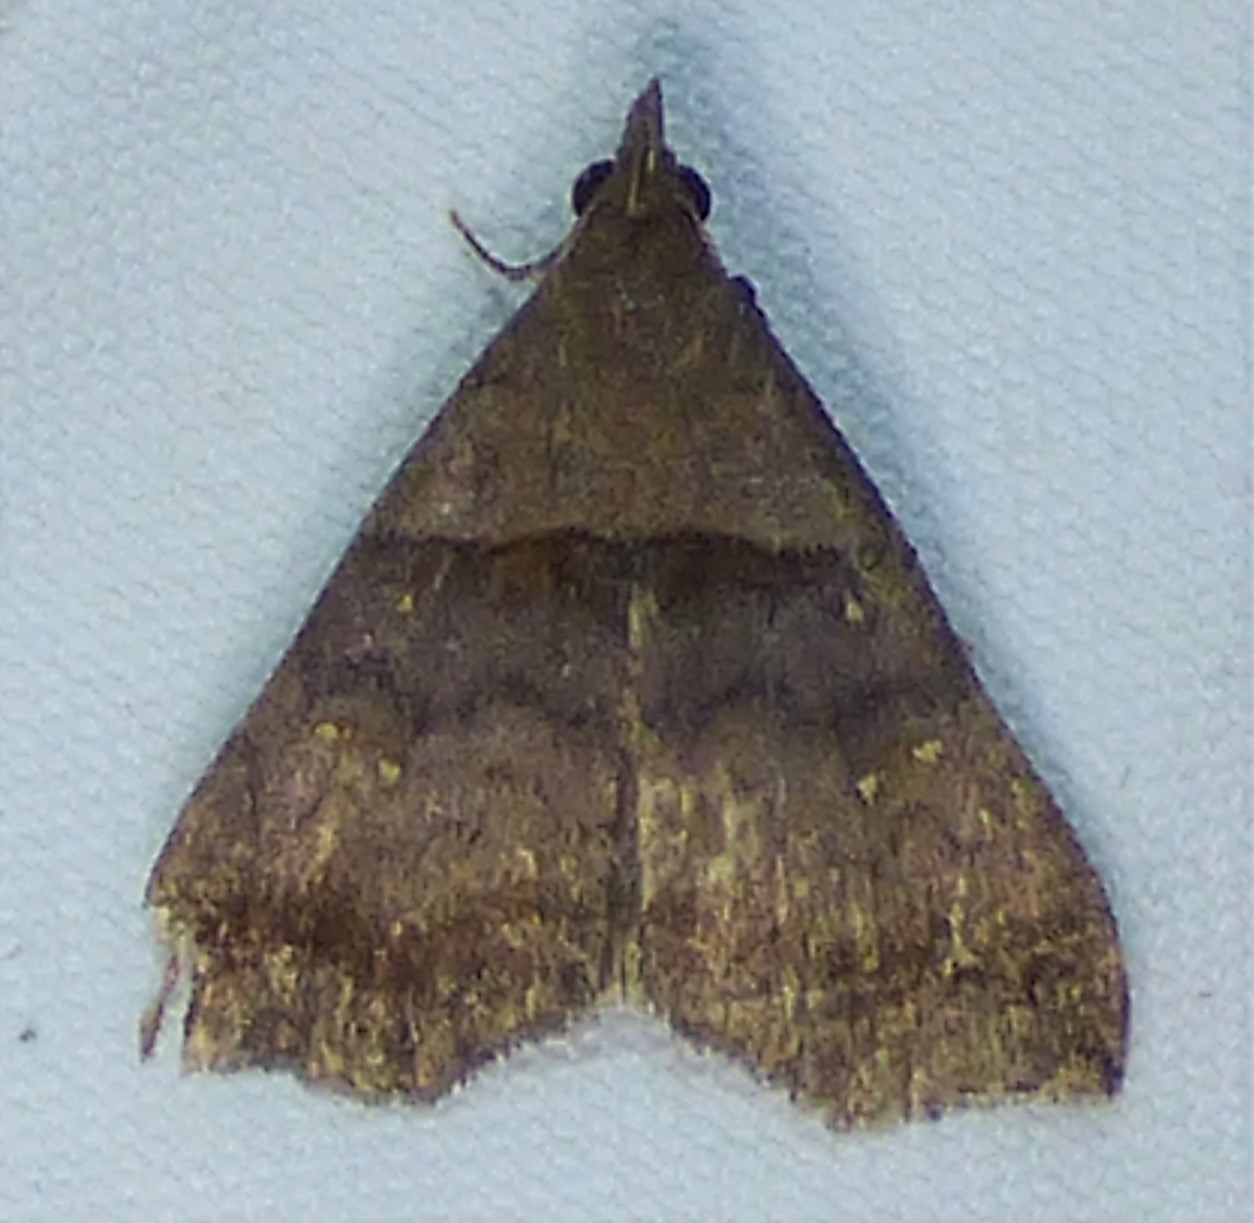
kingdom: Animalia
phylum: Arthropoda
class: Insecta
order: Lepidoptera
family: Erebidae
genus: Lascoria
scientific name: Lascoria ambigualis
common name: Ambiguous moth
